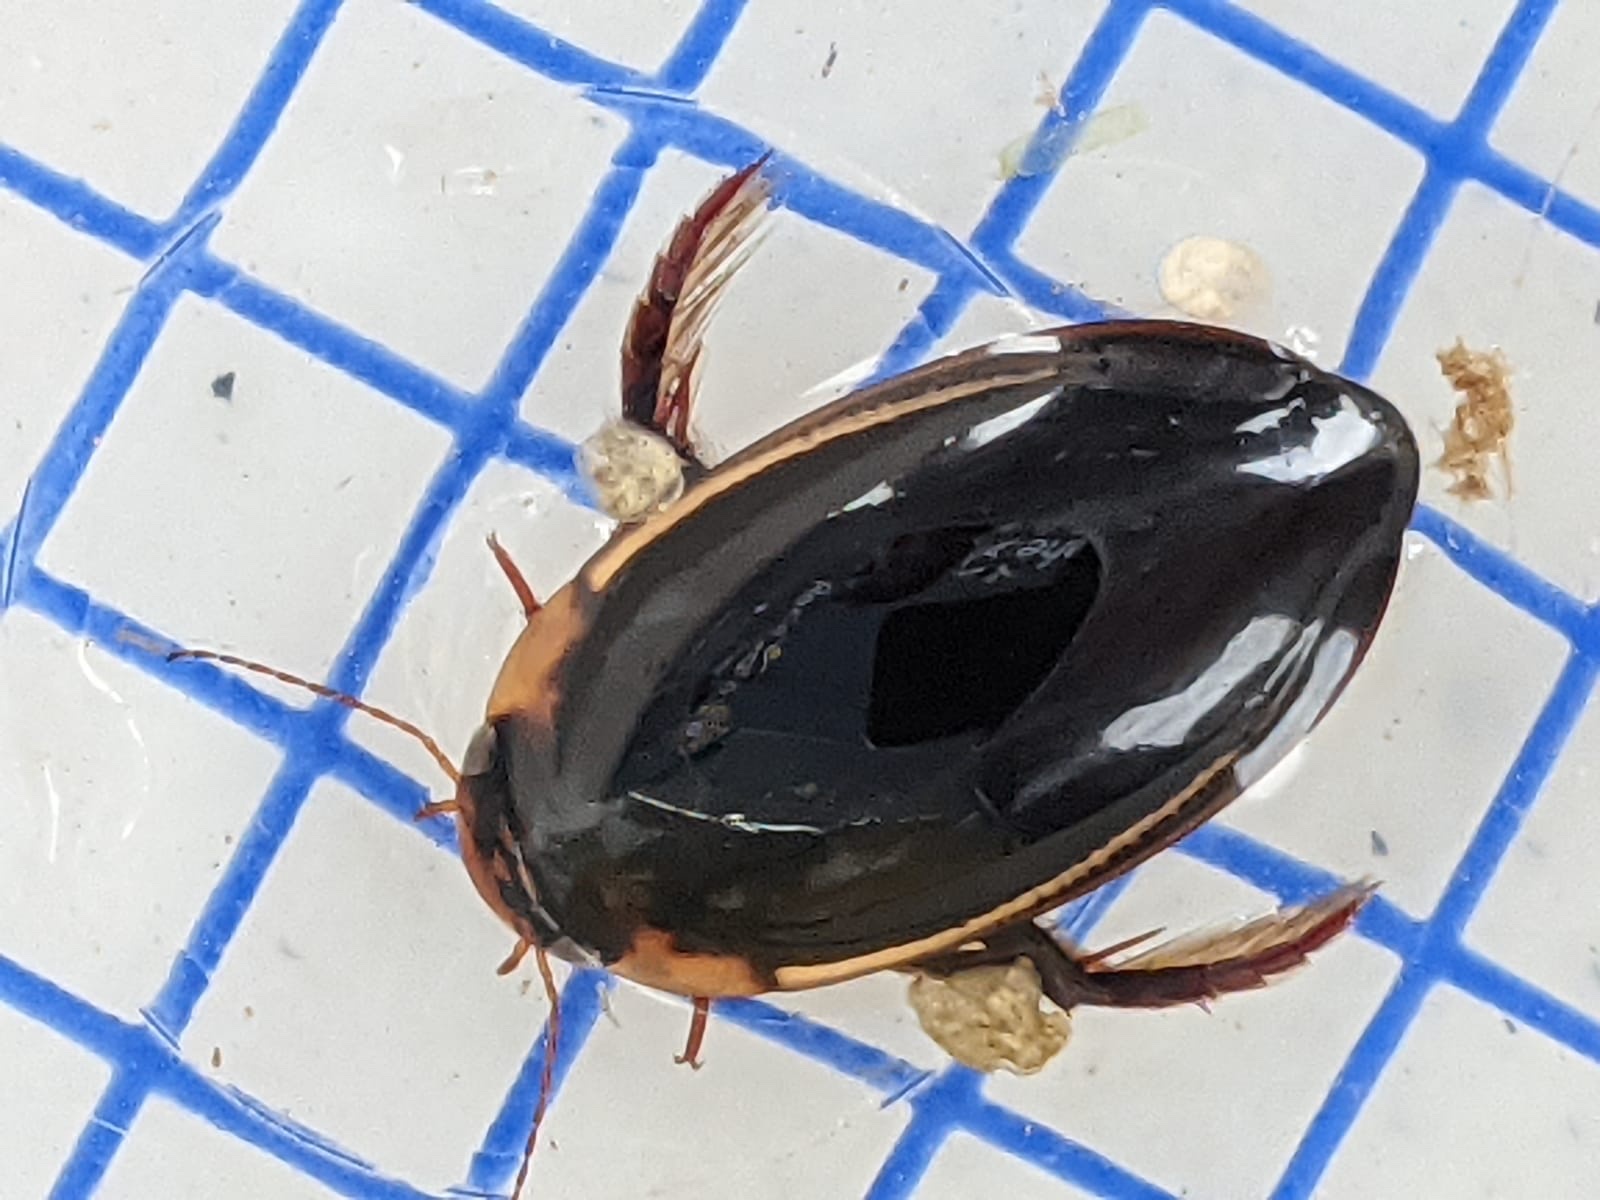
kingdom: Animalia
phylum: Arthropoda
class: Insecta
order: Coleoptera
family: Dytiscidae
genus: Hydaticus
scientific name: Hydaticus seminiger
